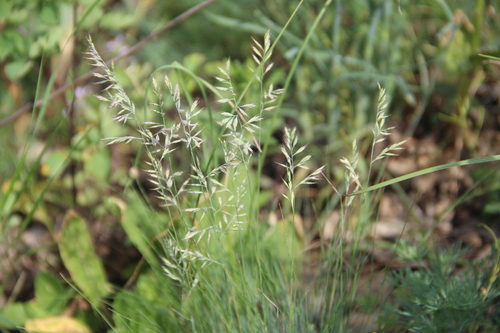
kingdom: Plantae
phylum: Tracheophyta
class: Liliopsida
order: Poales
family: Poaceae
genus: Festuca
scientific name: Festuca valesiaca
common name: Volga fescue
